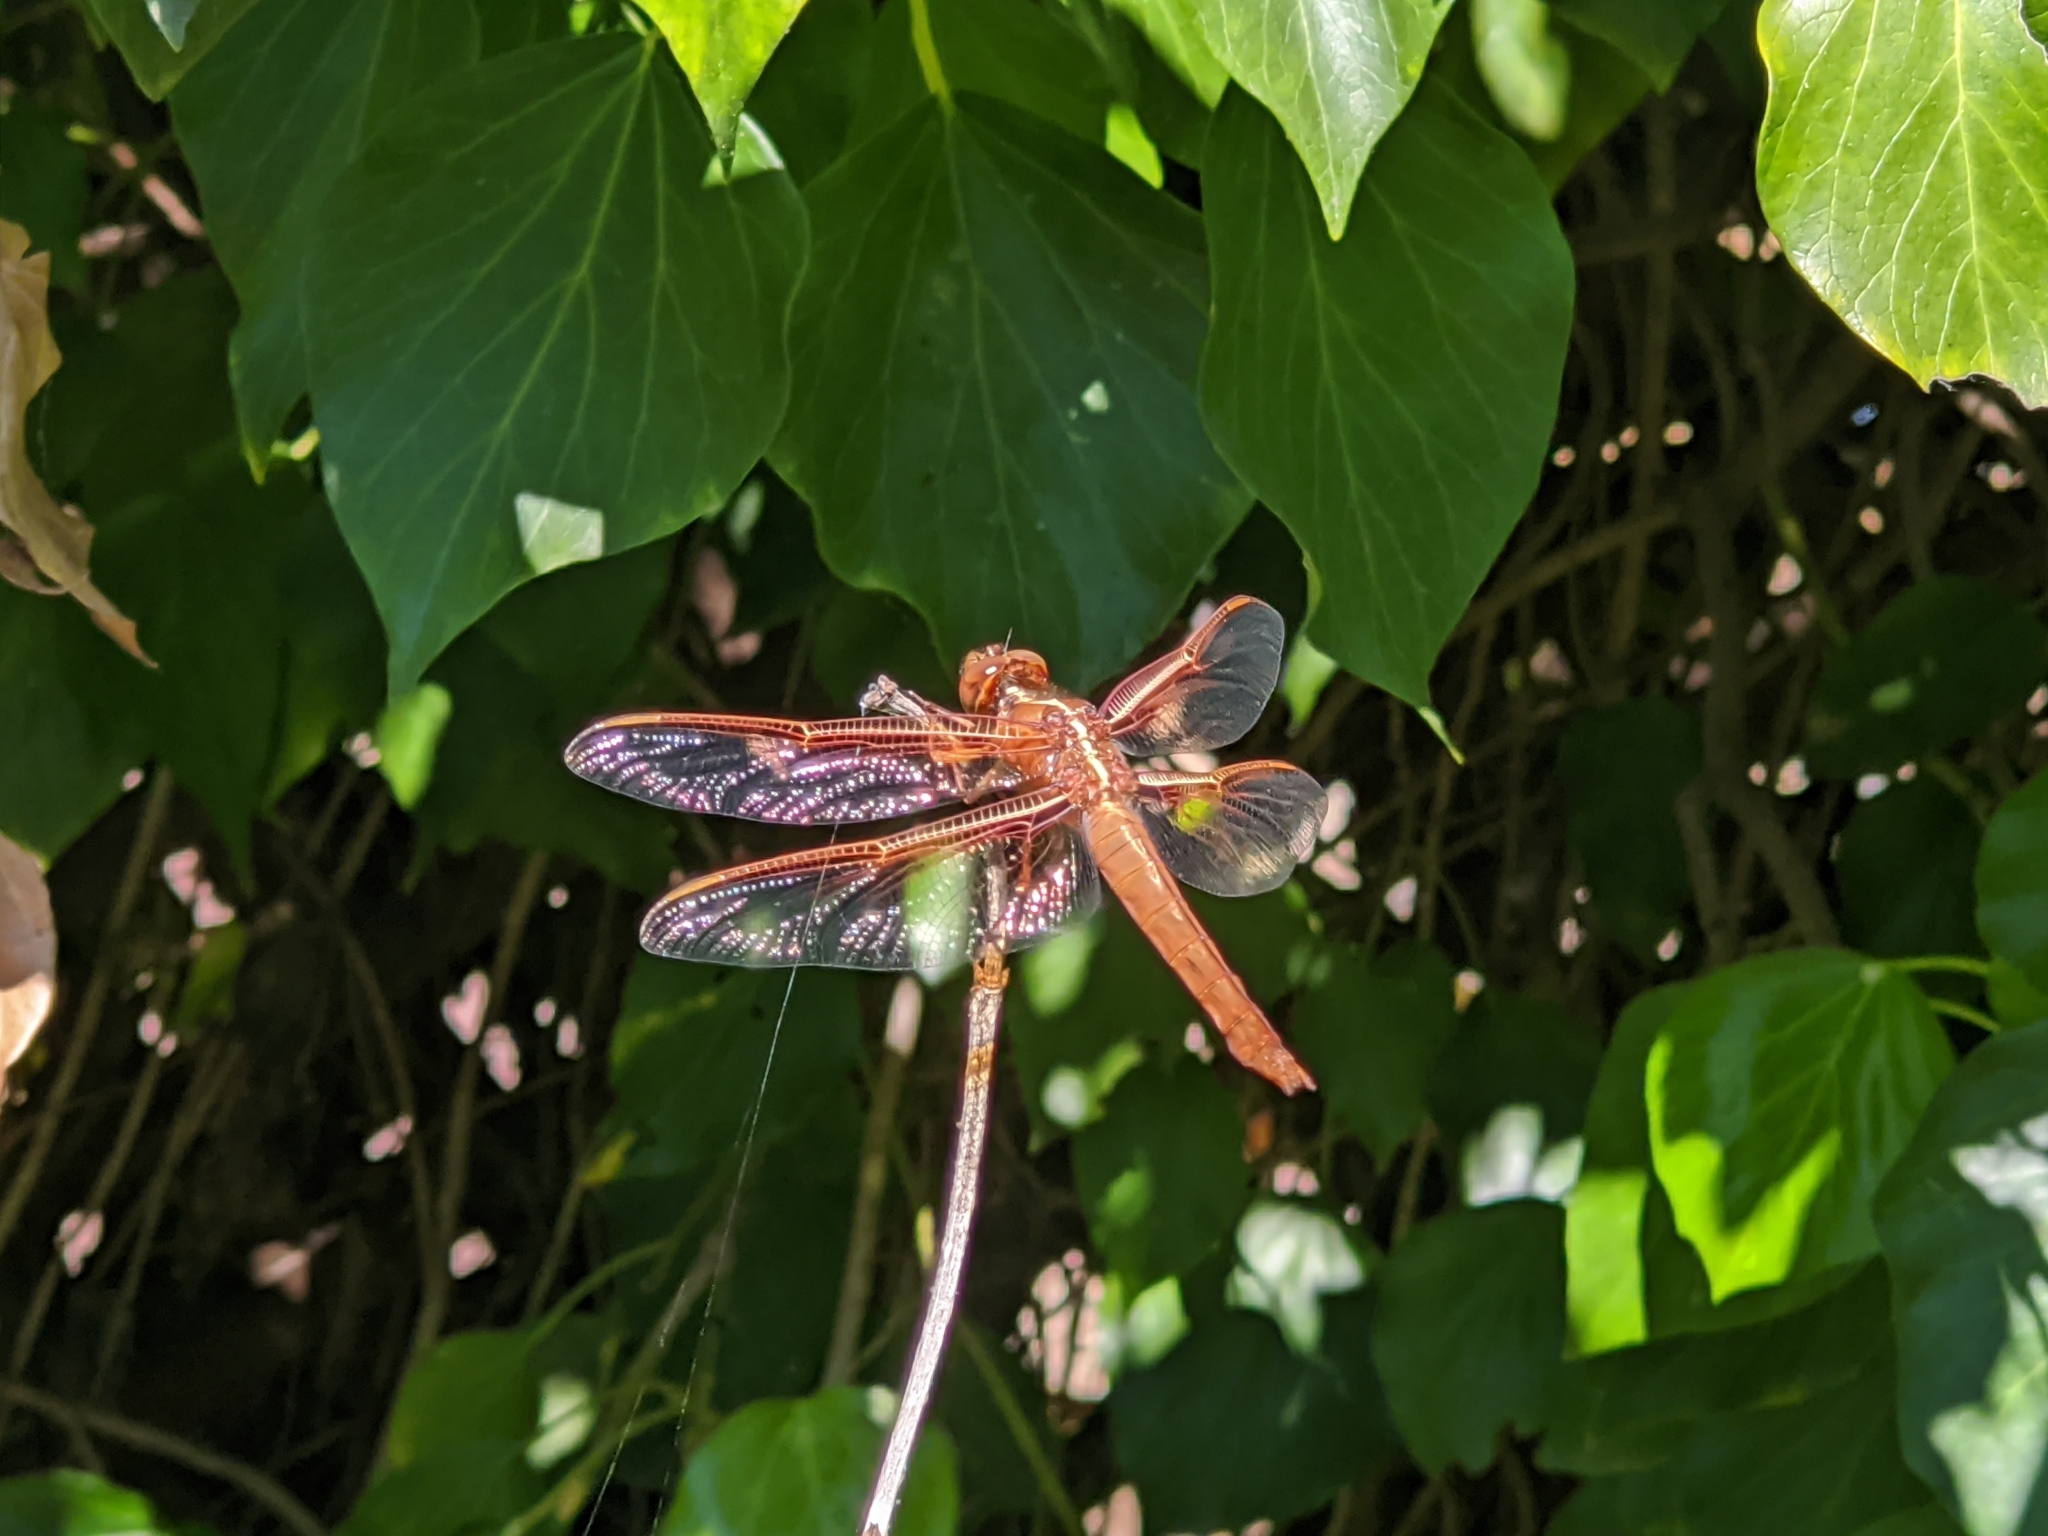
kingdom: Animalia
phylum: Arthropoda
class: Insecta
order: Odonata
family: Libellulidae
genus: Libellula
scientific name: Libellula saturata
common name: Flame skimmer
